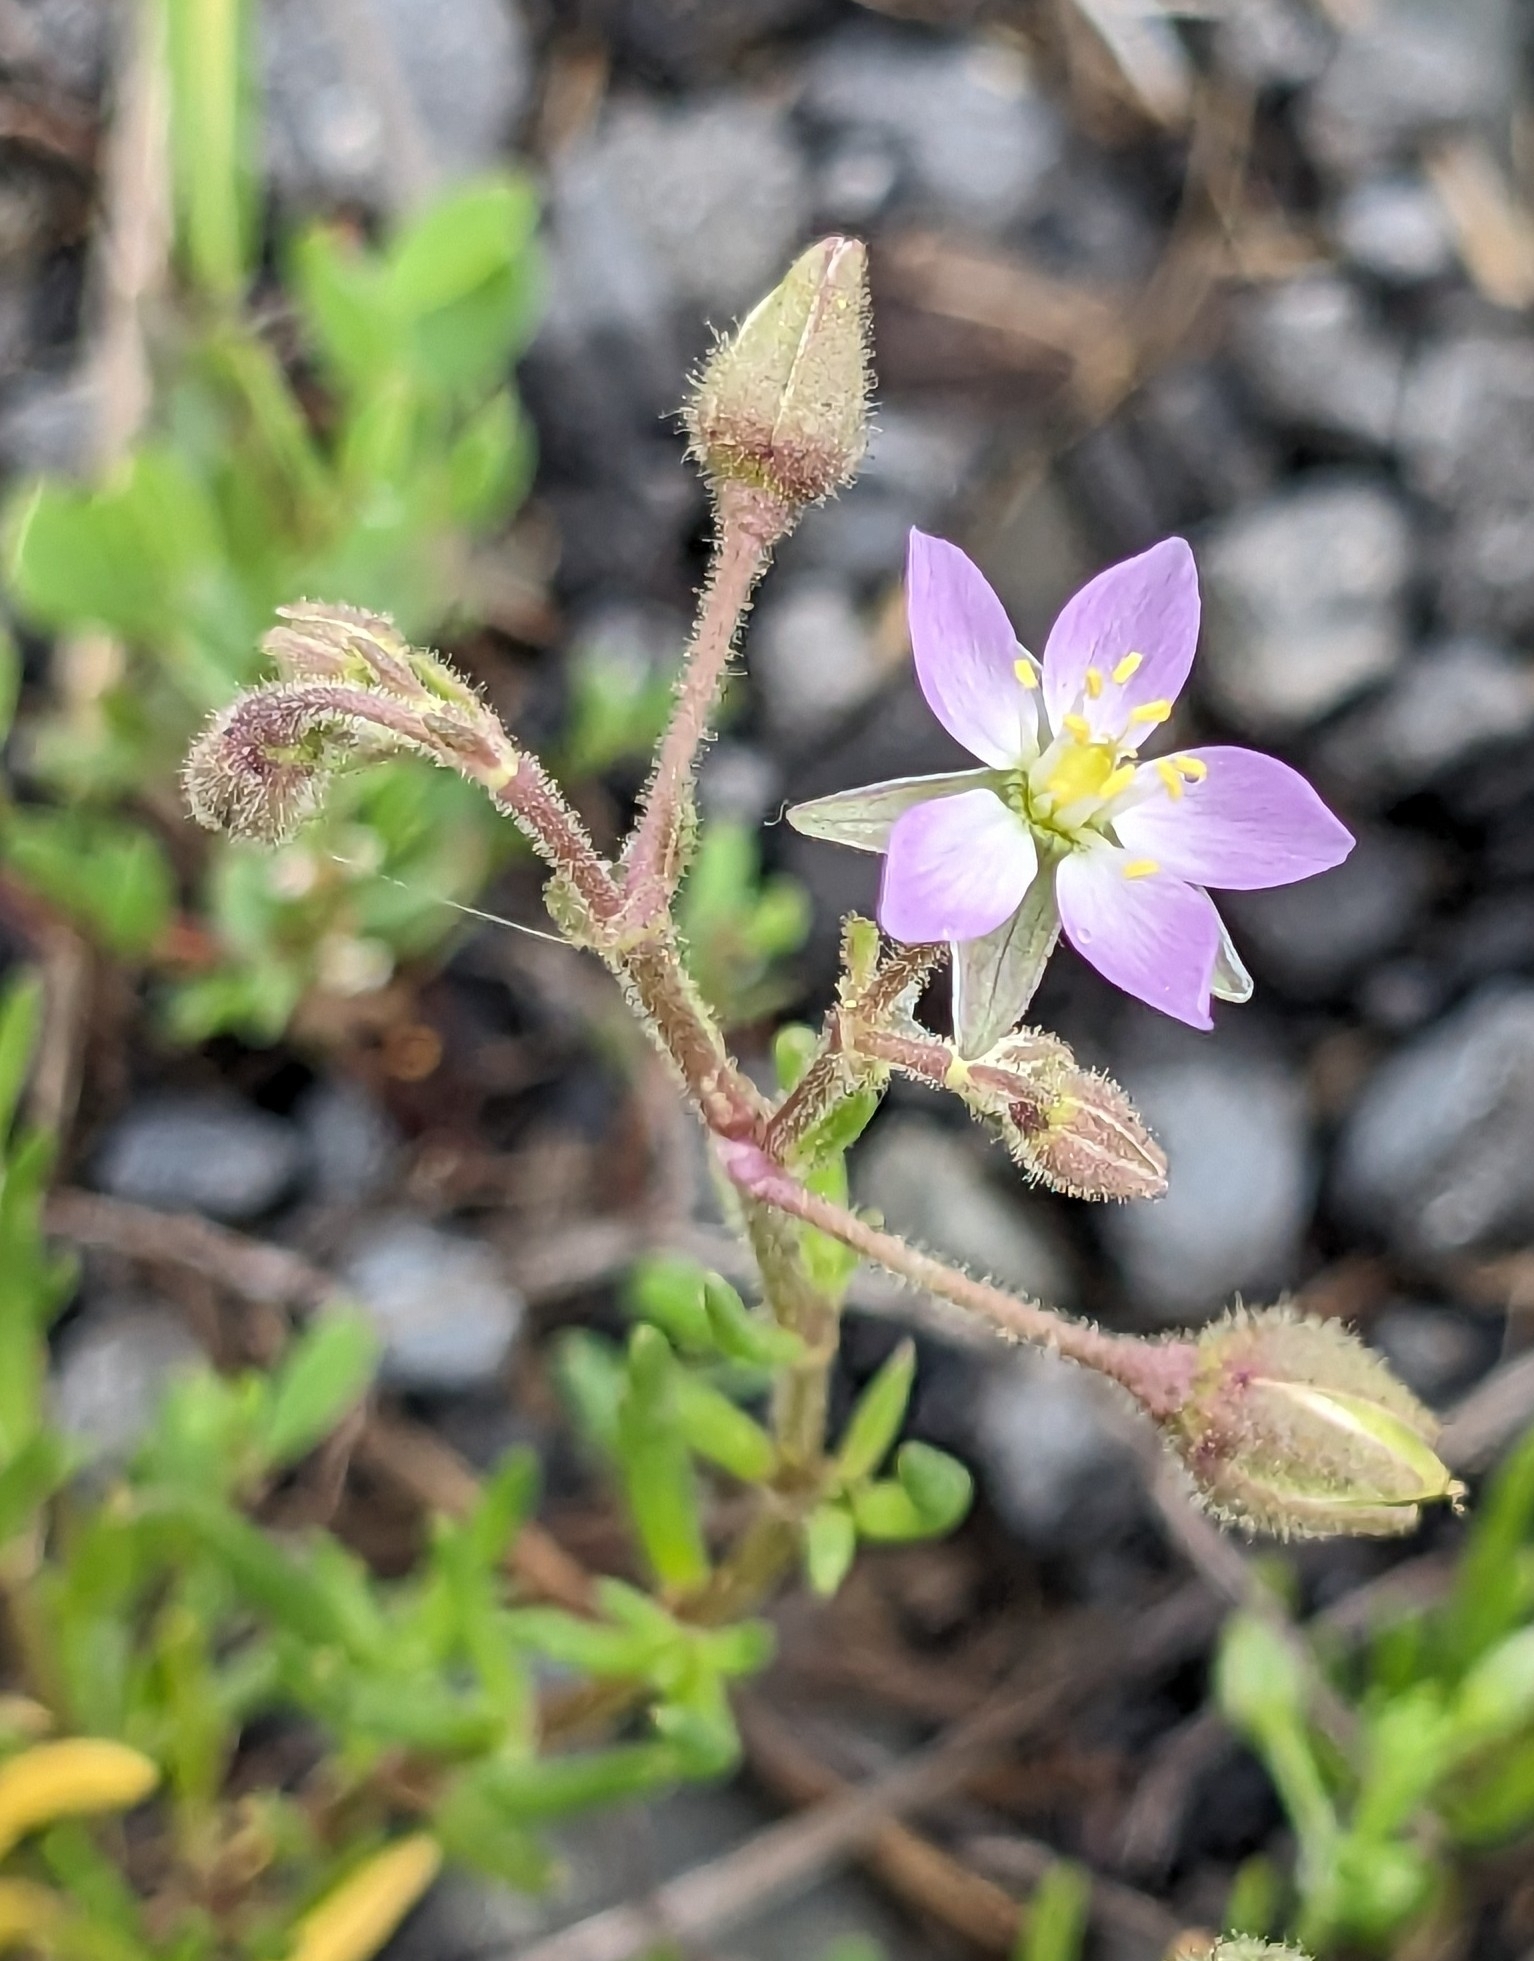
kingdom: Plantae
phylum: Tracheophyta
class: Magnoliopsida
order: Caryophyllales
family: Caryophyllaceae
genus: Spergularia
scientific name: Spergularia marina
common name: Lesser sea-spurrey
